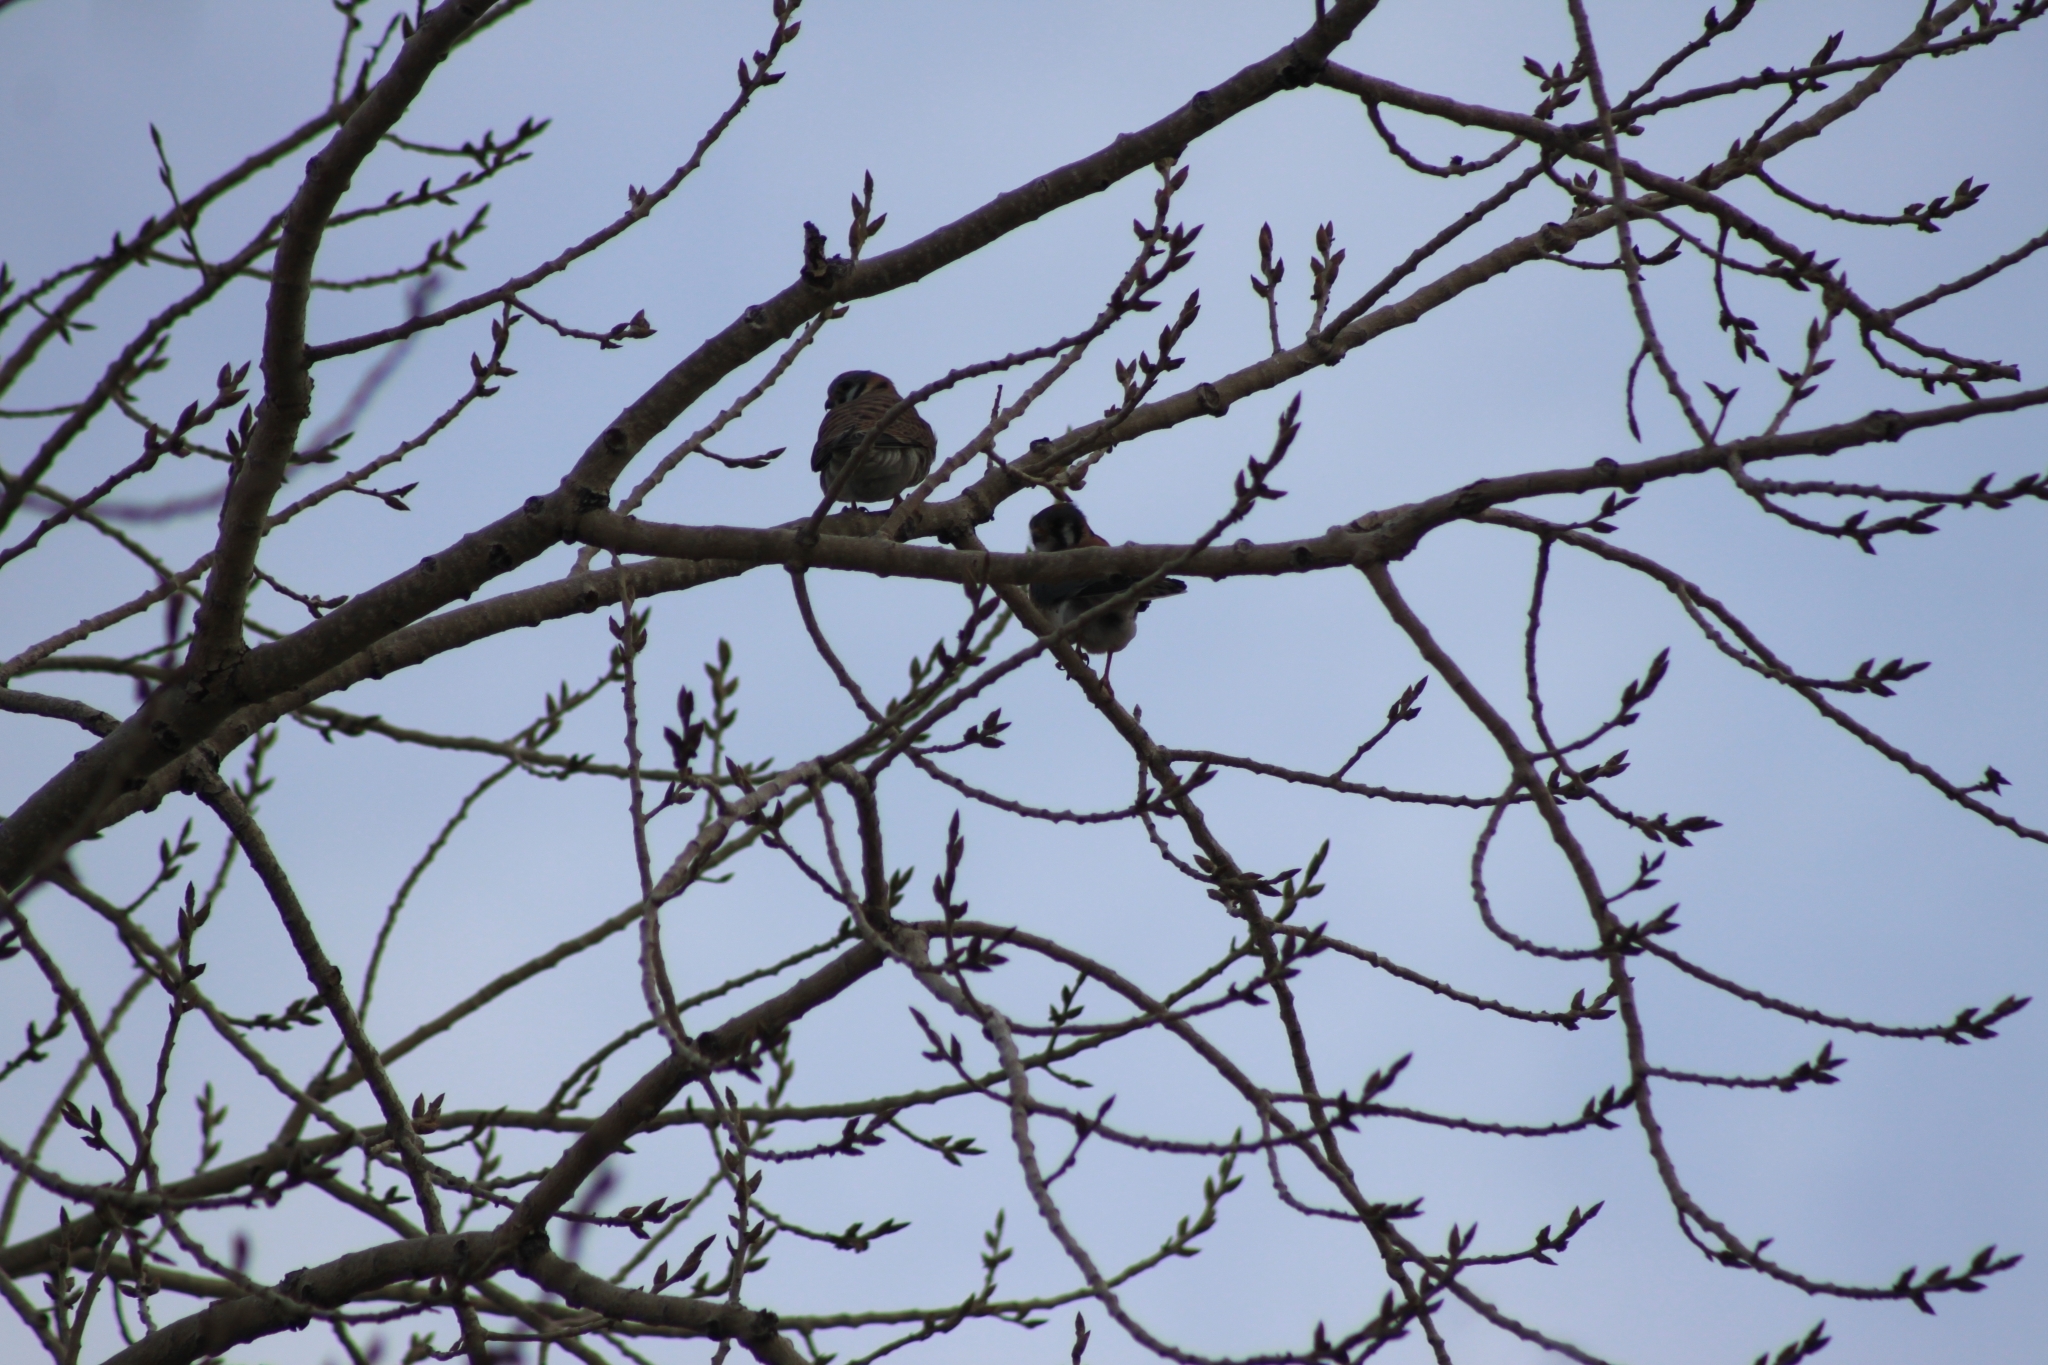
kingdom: Animalia
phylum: Chordata
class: Aves
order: Falconiformes
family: Falconidae
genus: Falco
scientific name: Falco sparverius
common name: American kestrel
